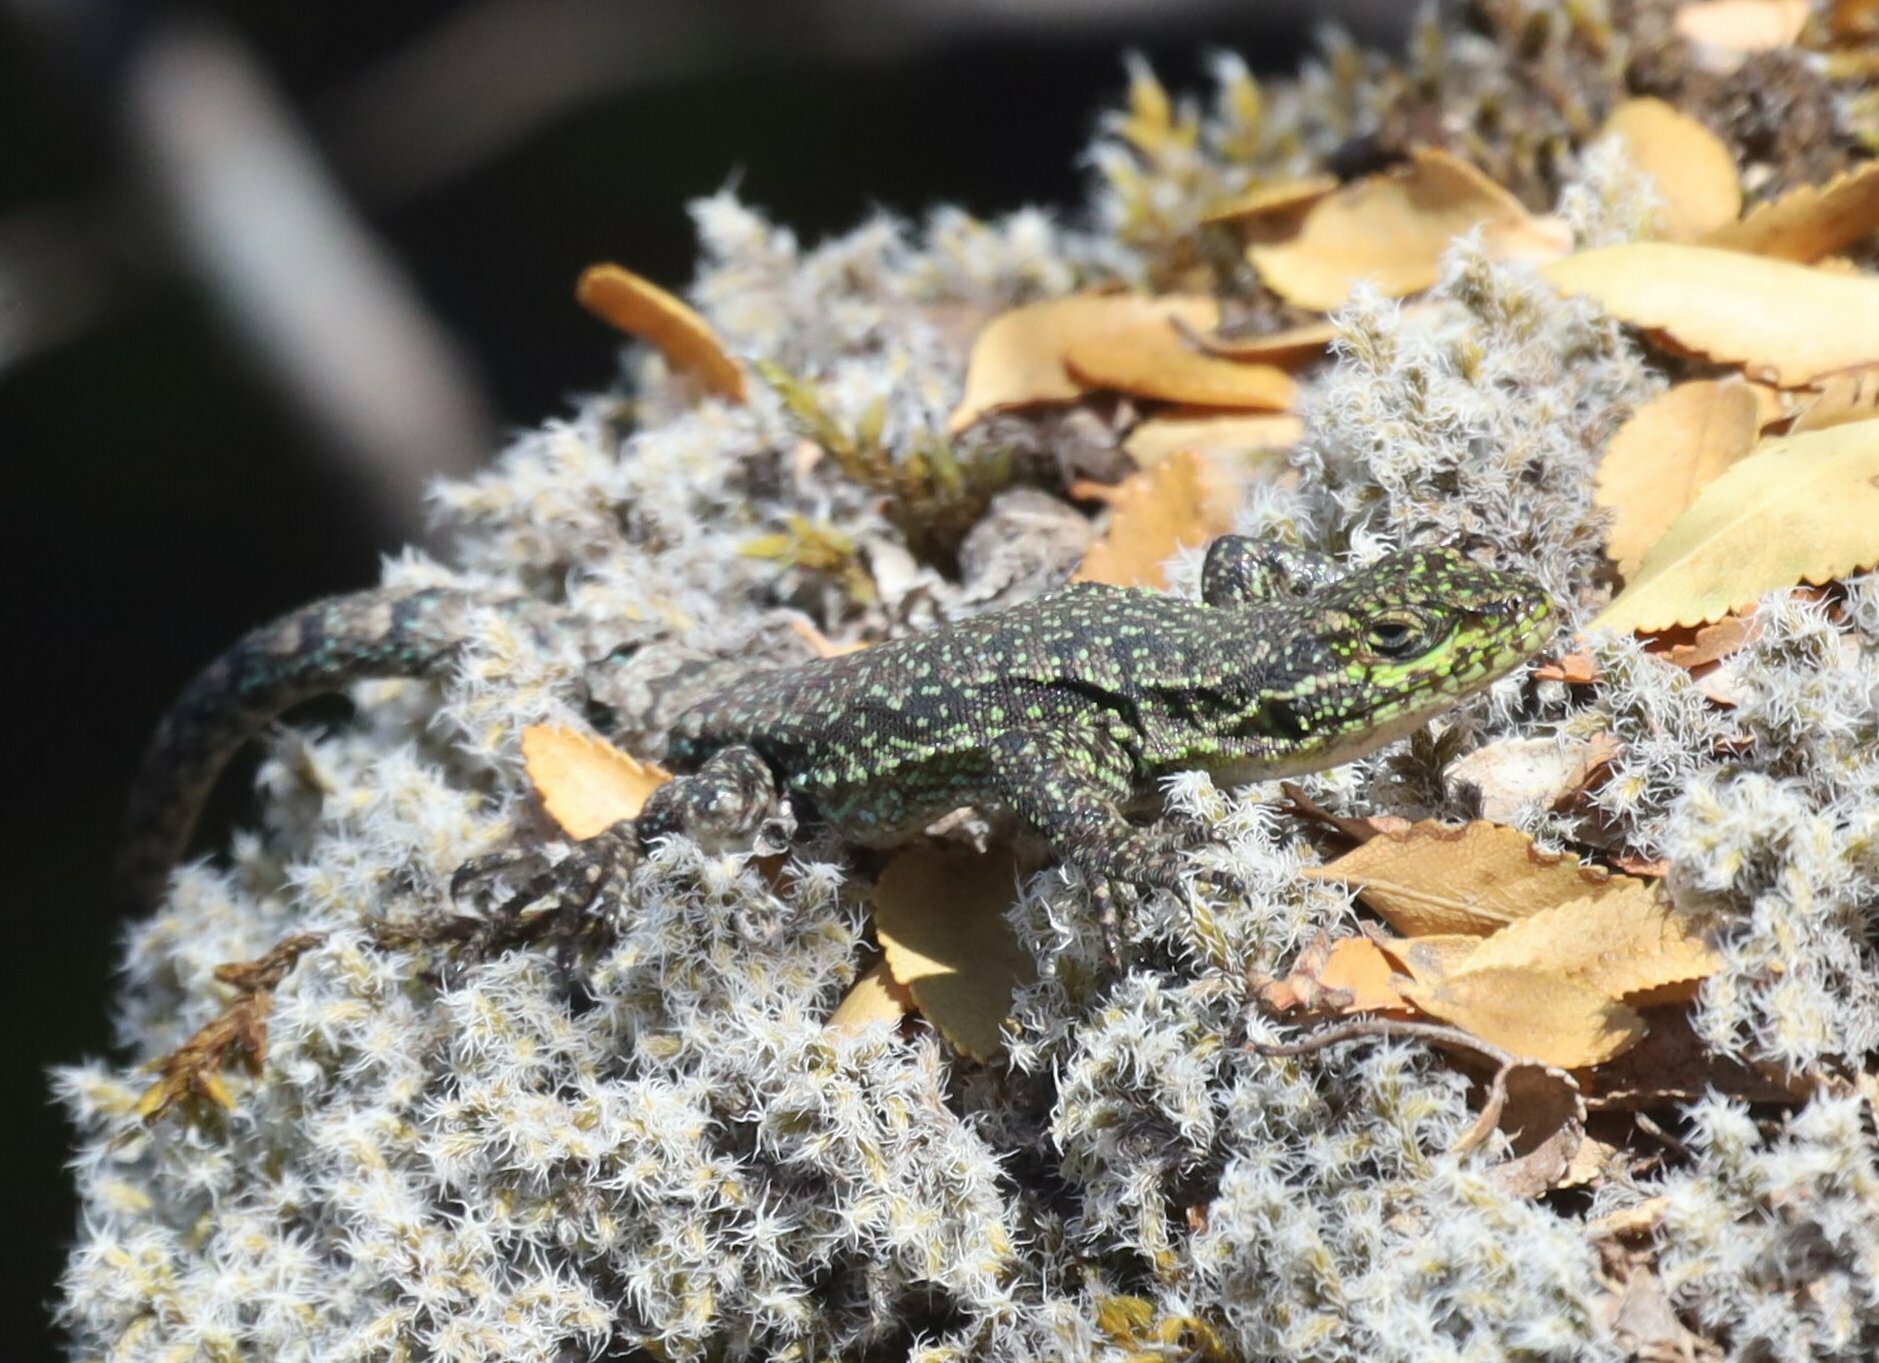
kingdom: Animalia
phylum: Chordata
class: Squamata
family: Liolaemidae
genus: Liolaemus
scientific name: Liolaemus tenuis
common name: Thin tree iguana
